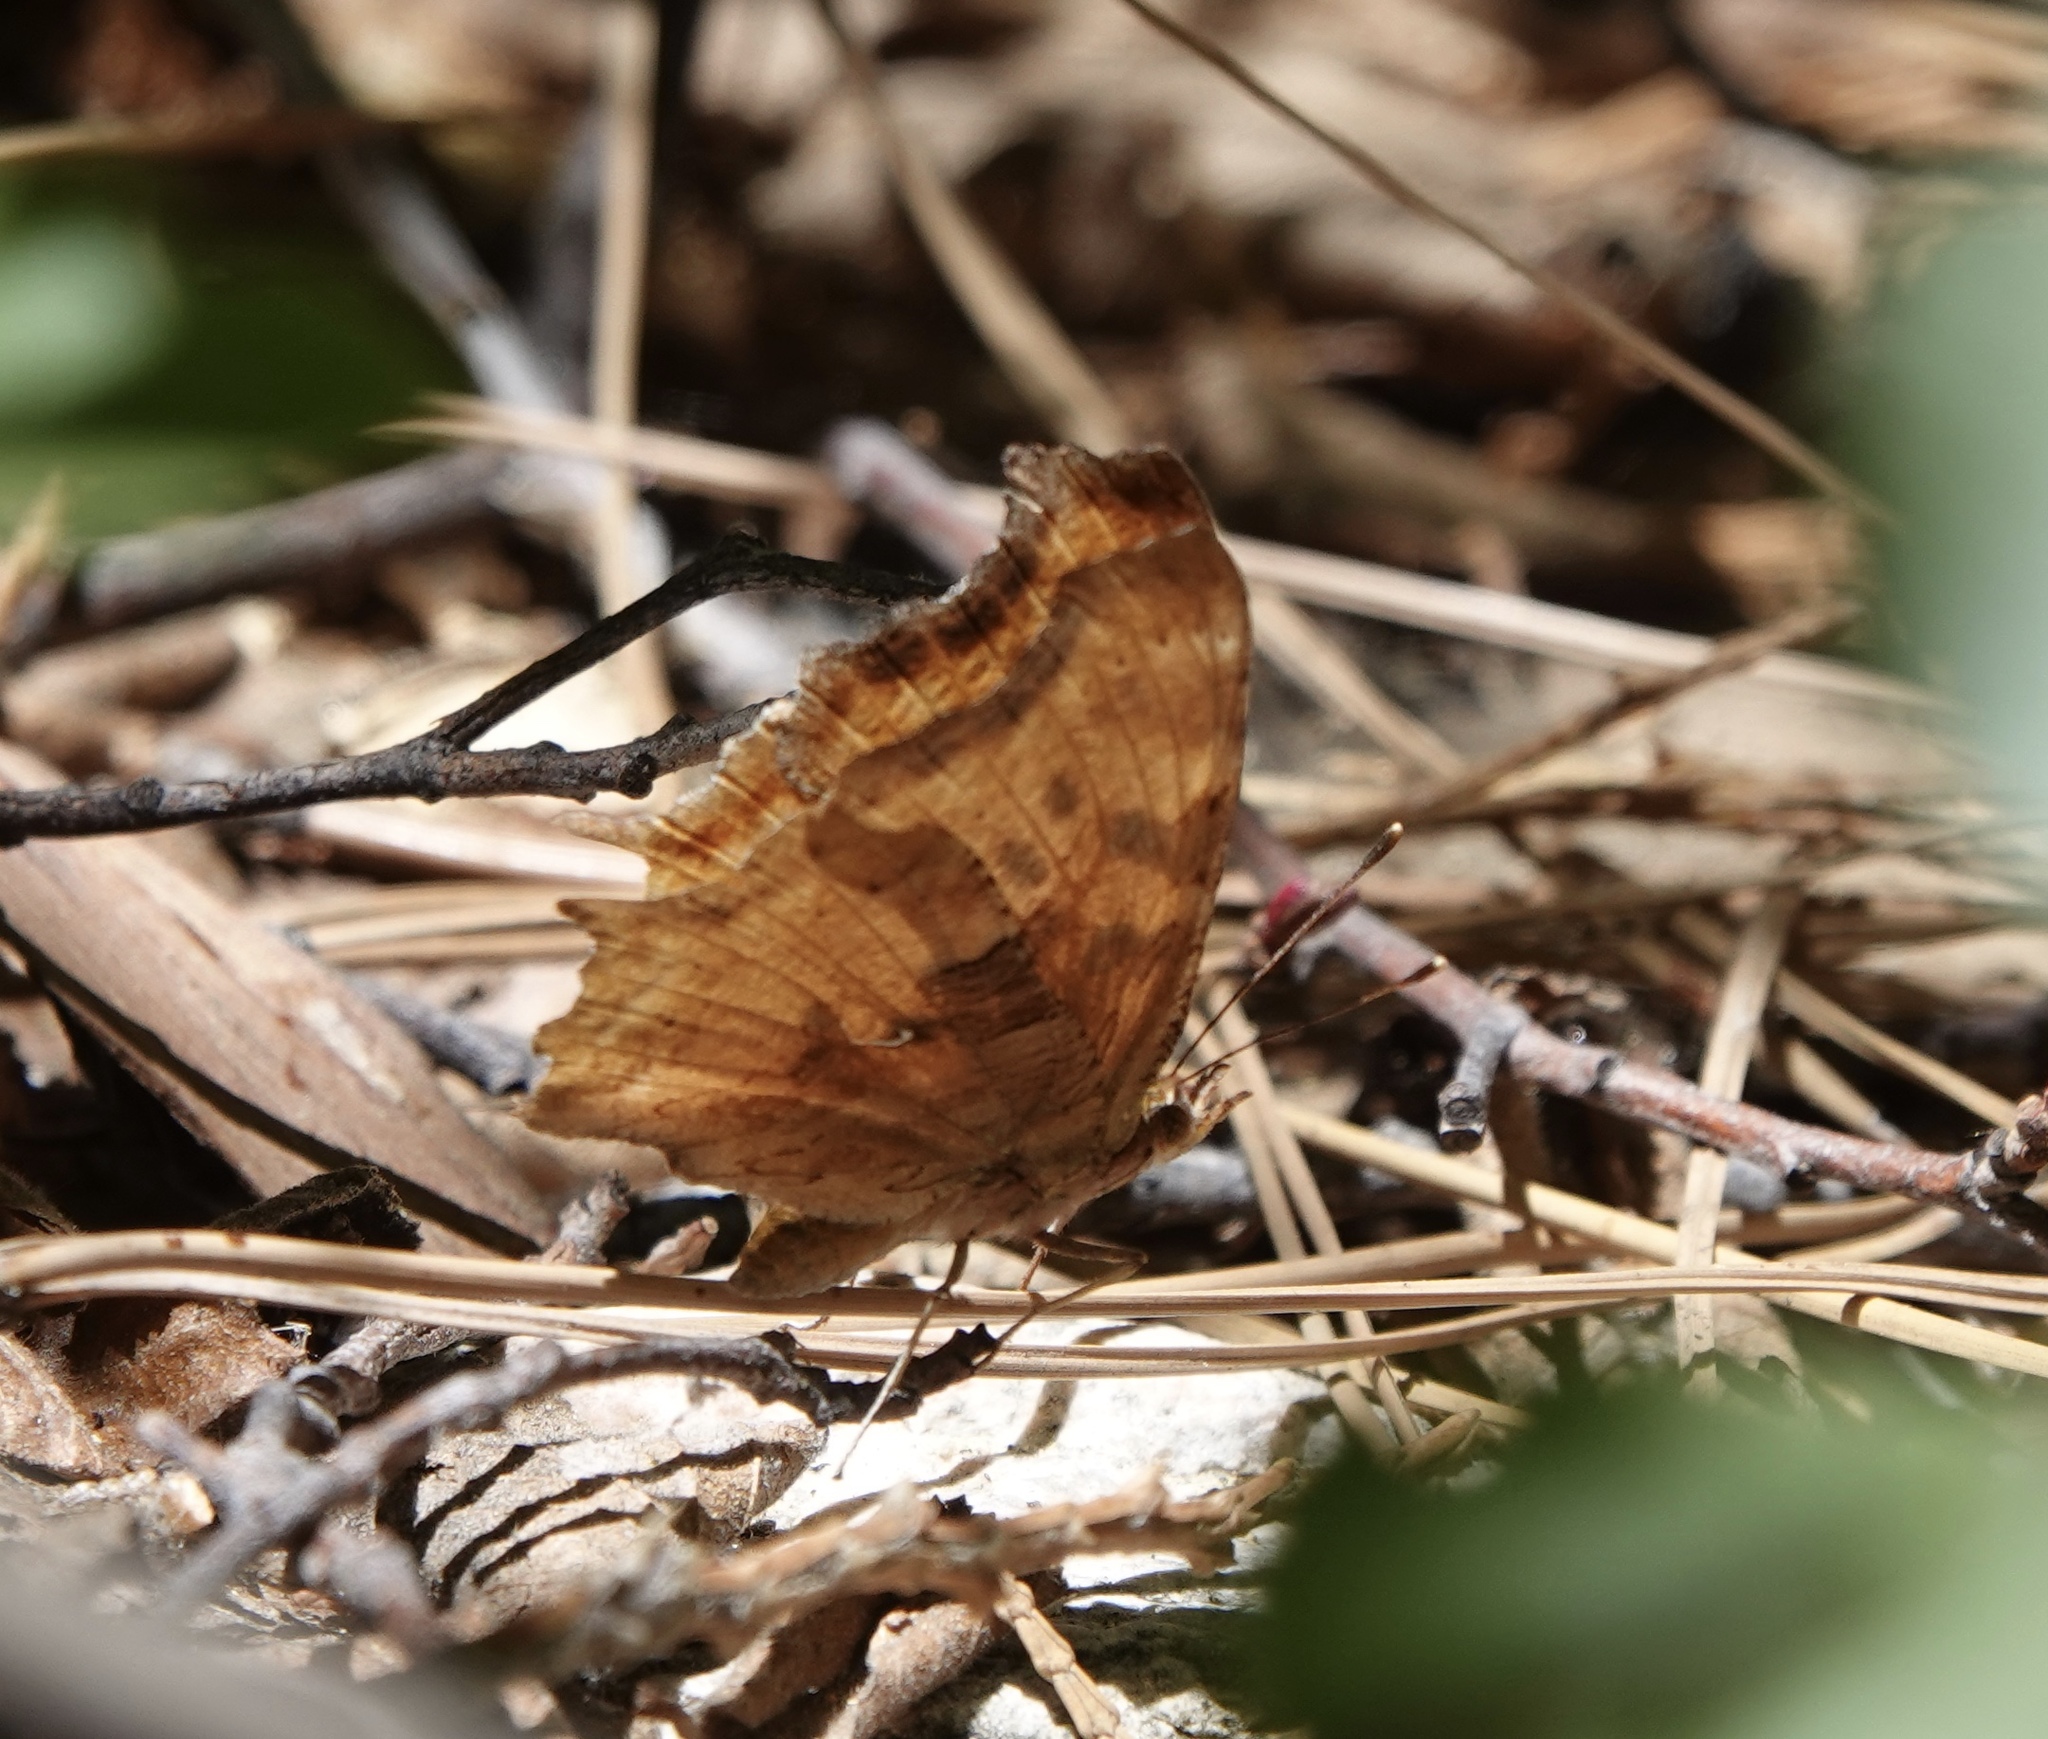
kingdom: Animalia
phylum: Arthropoda
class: Insecta
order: Lepidoptera
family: Nymphalidae
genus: Polygonia
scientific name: Polygonia satyrus
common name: Satyr angle wing
